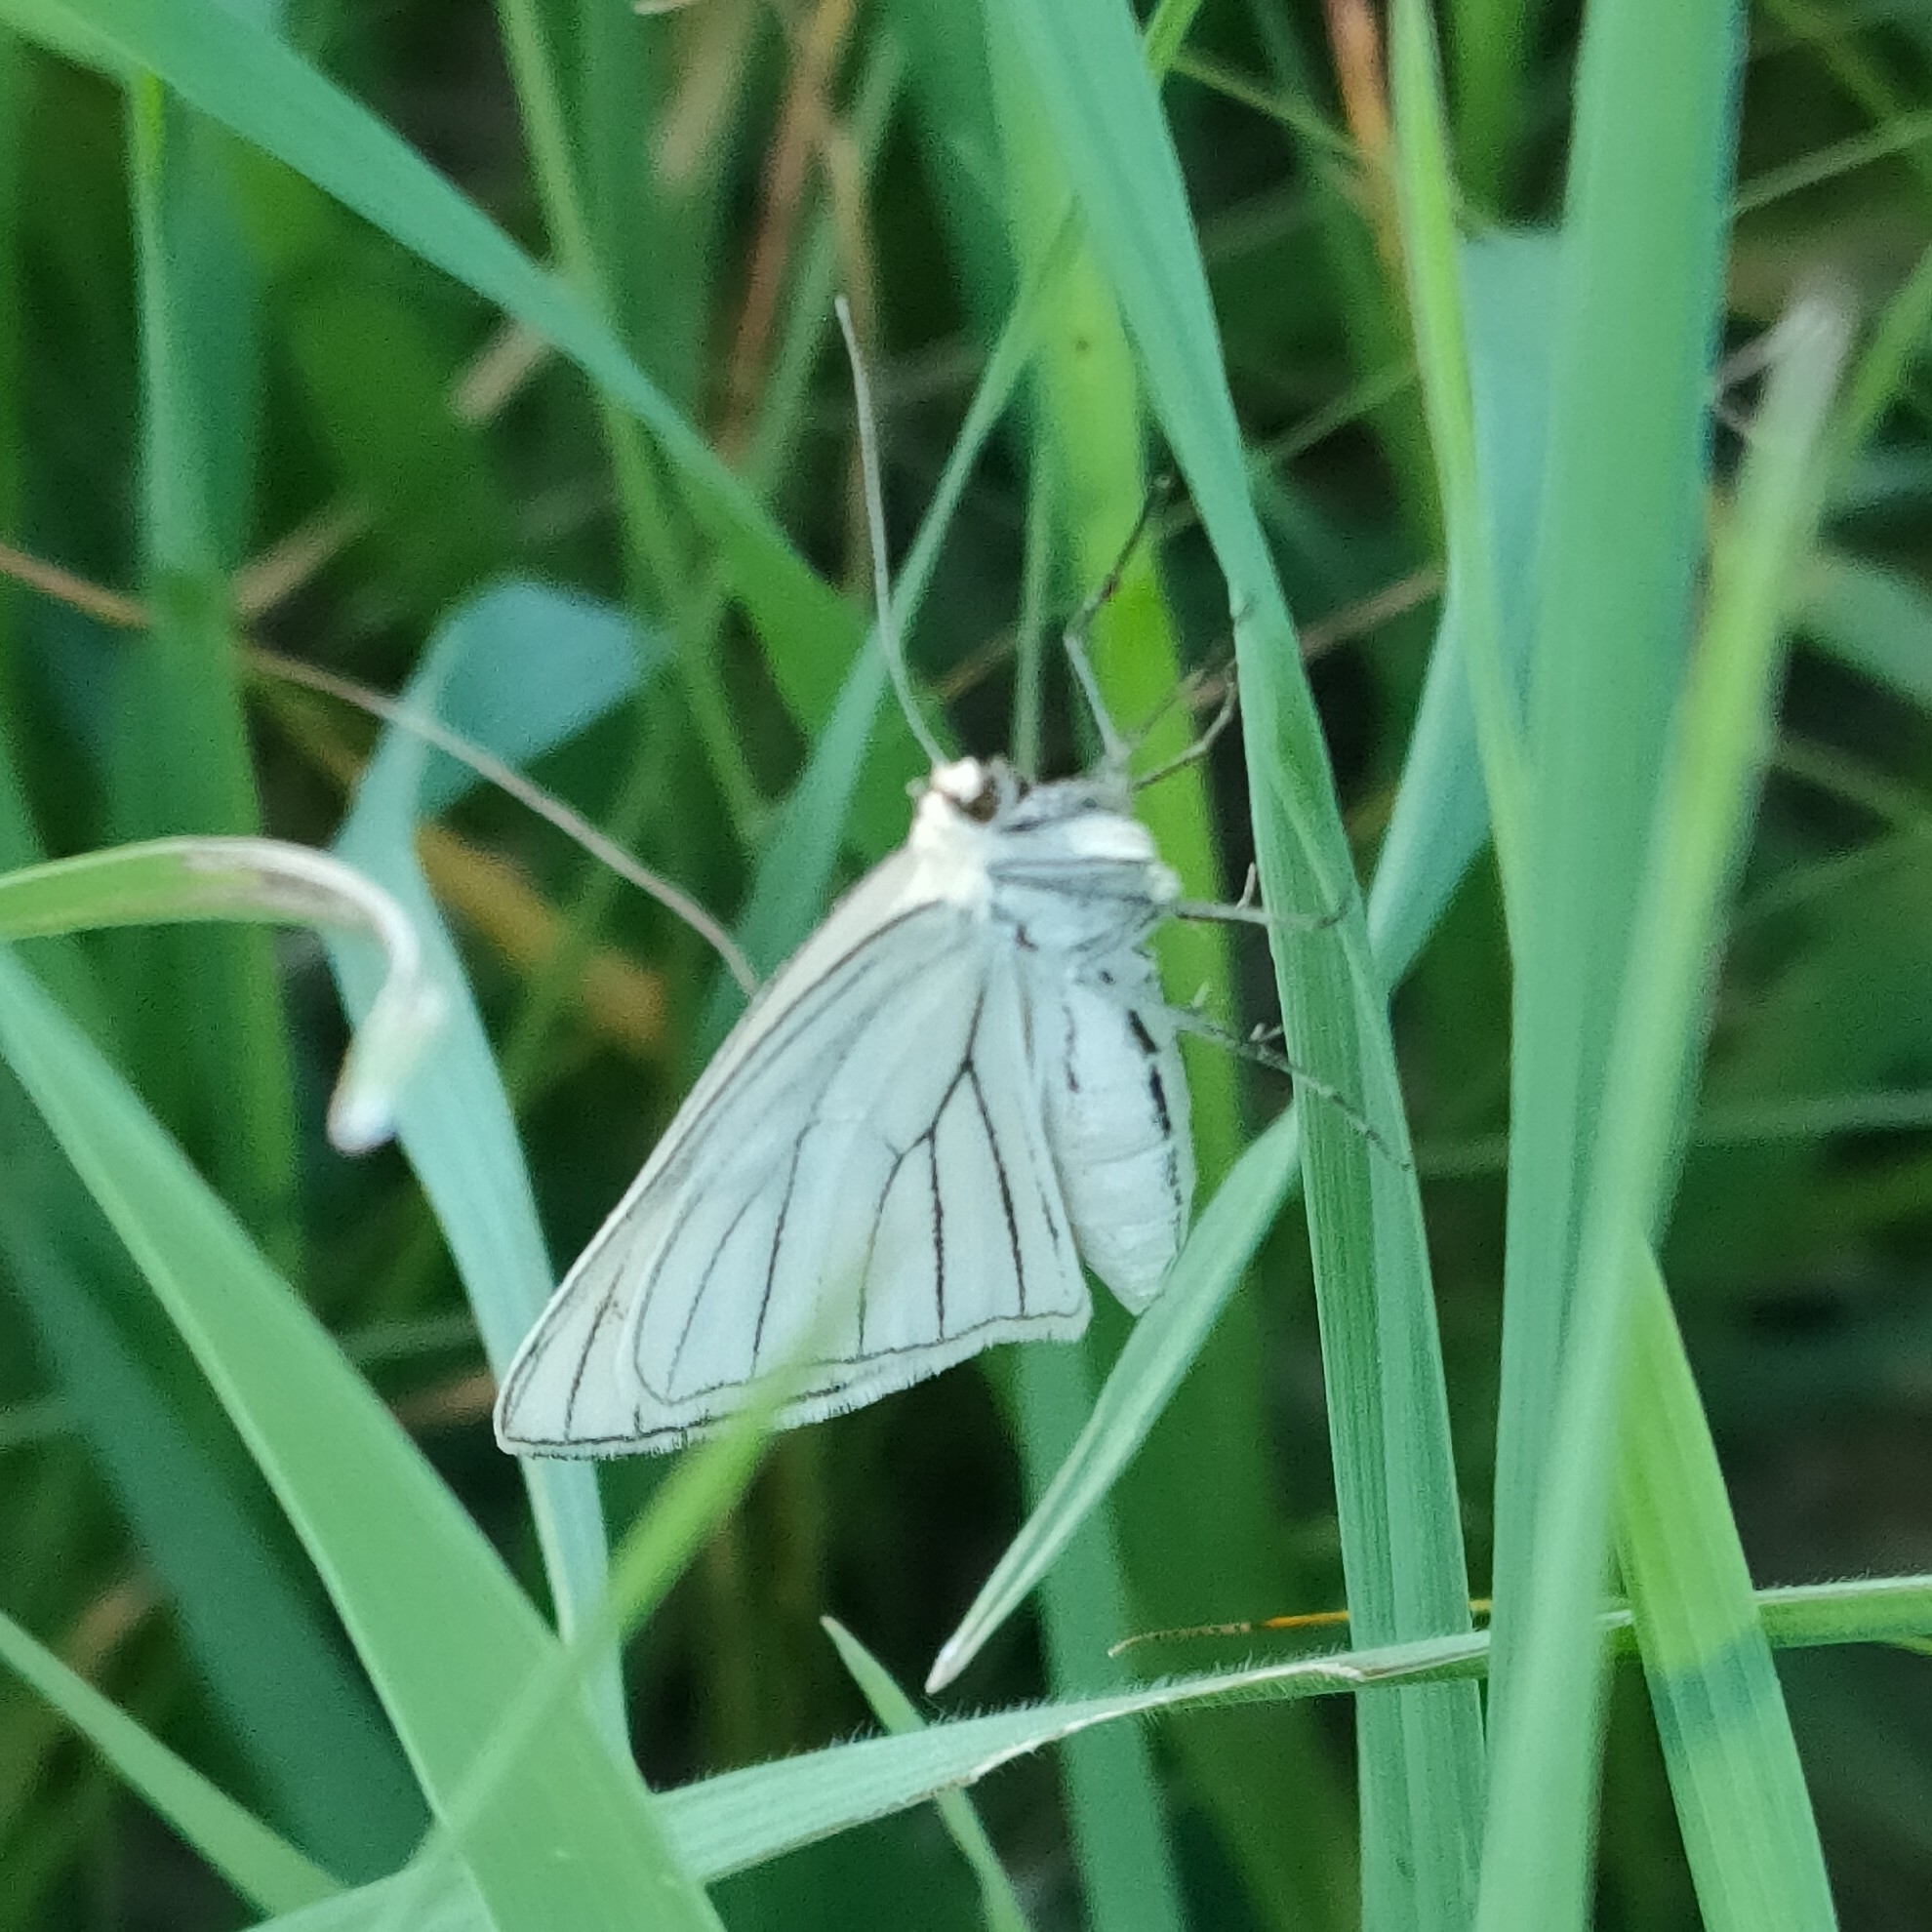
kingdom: Animalia
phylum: Arthropoda
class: Insecta
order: Lepidoptera
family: Geometridae
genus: Siona
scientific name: Siona lineata
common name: Black-veined moth
